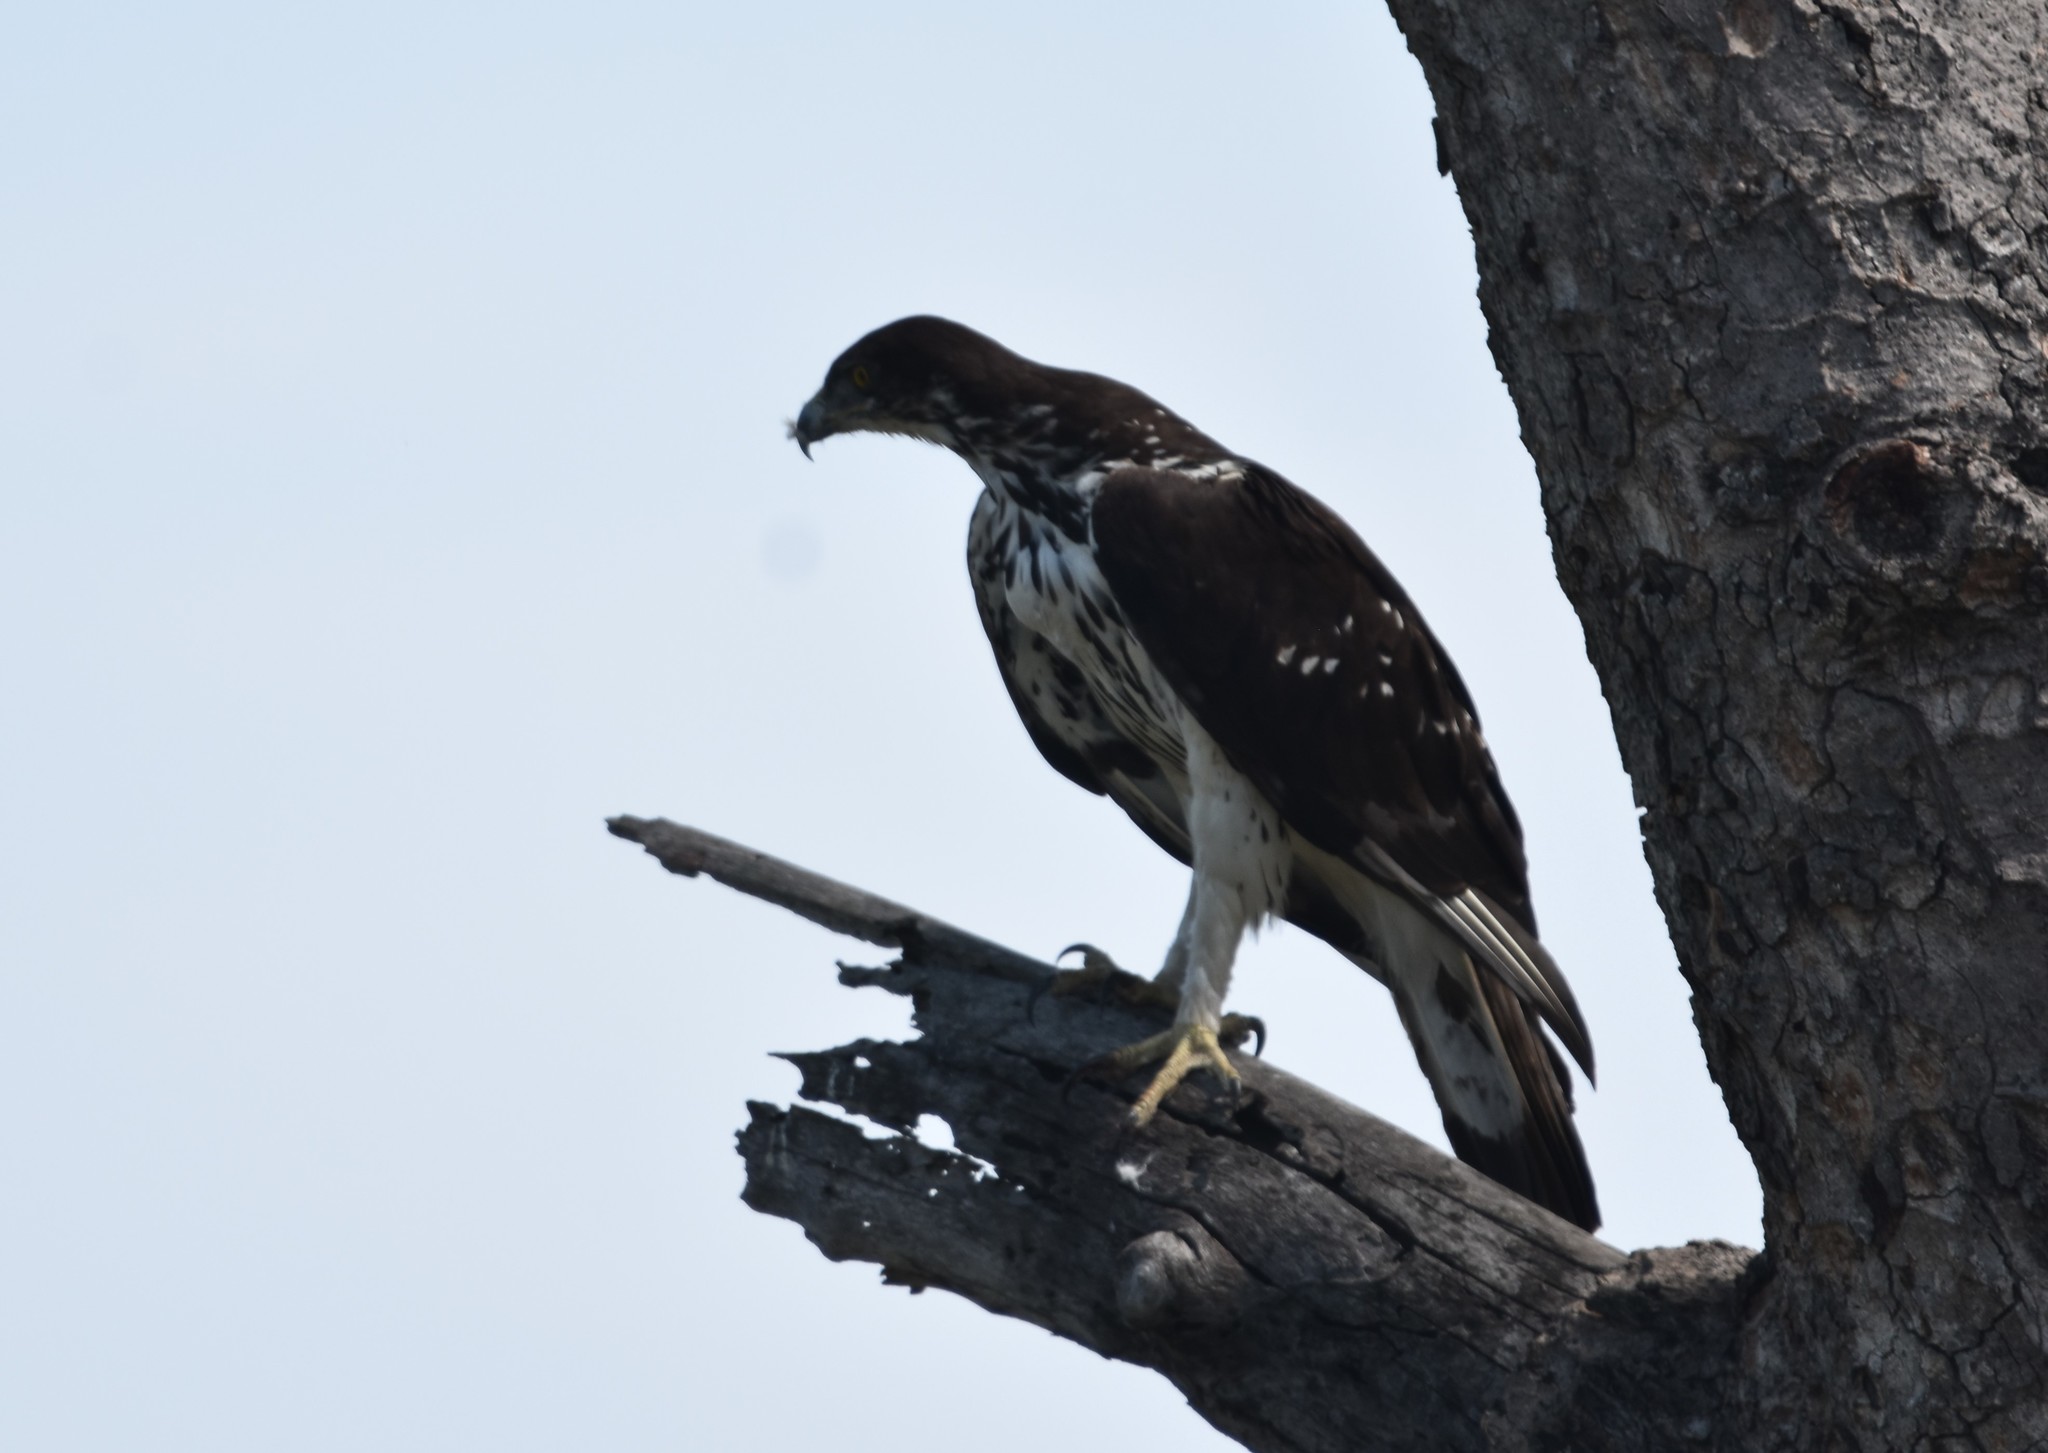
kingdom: Animalia
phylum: Chordata
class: Aves
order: Accipitriformes
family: Accipitridae
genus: Aquila
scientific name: Aquila spilogaster
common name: African hawk-eagle
